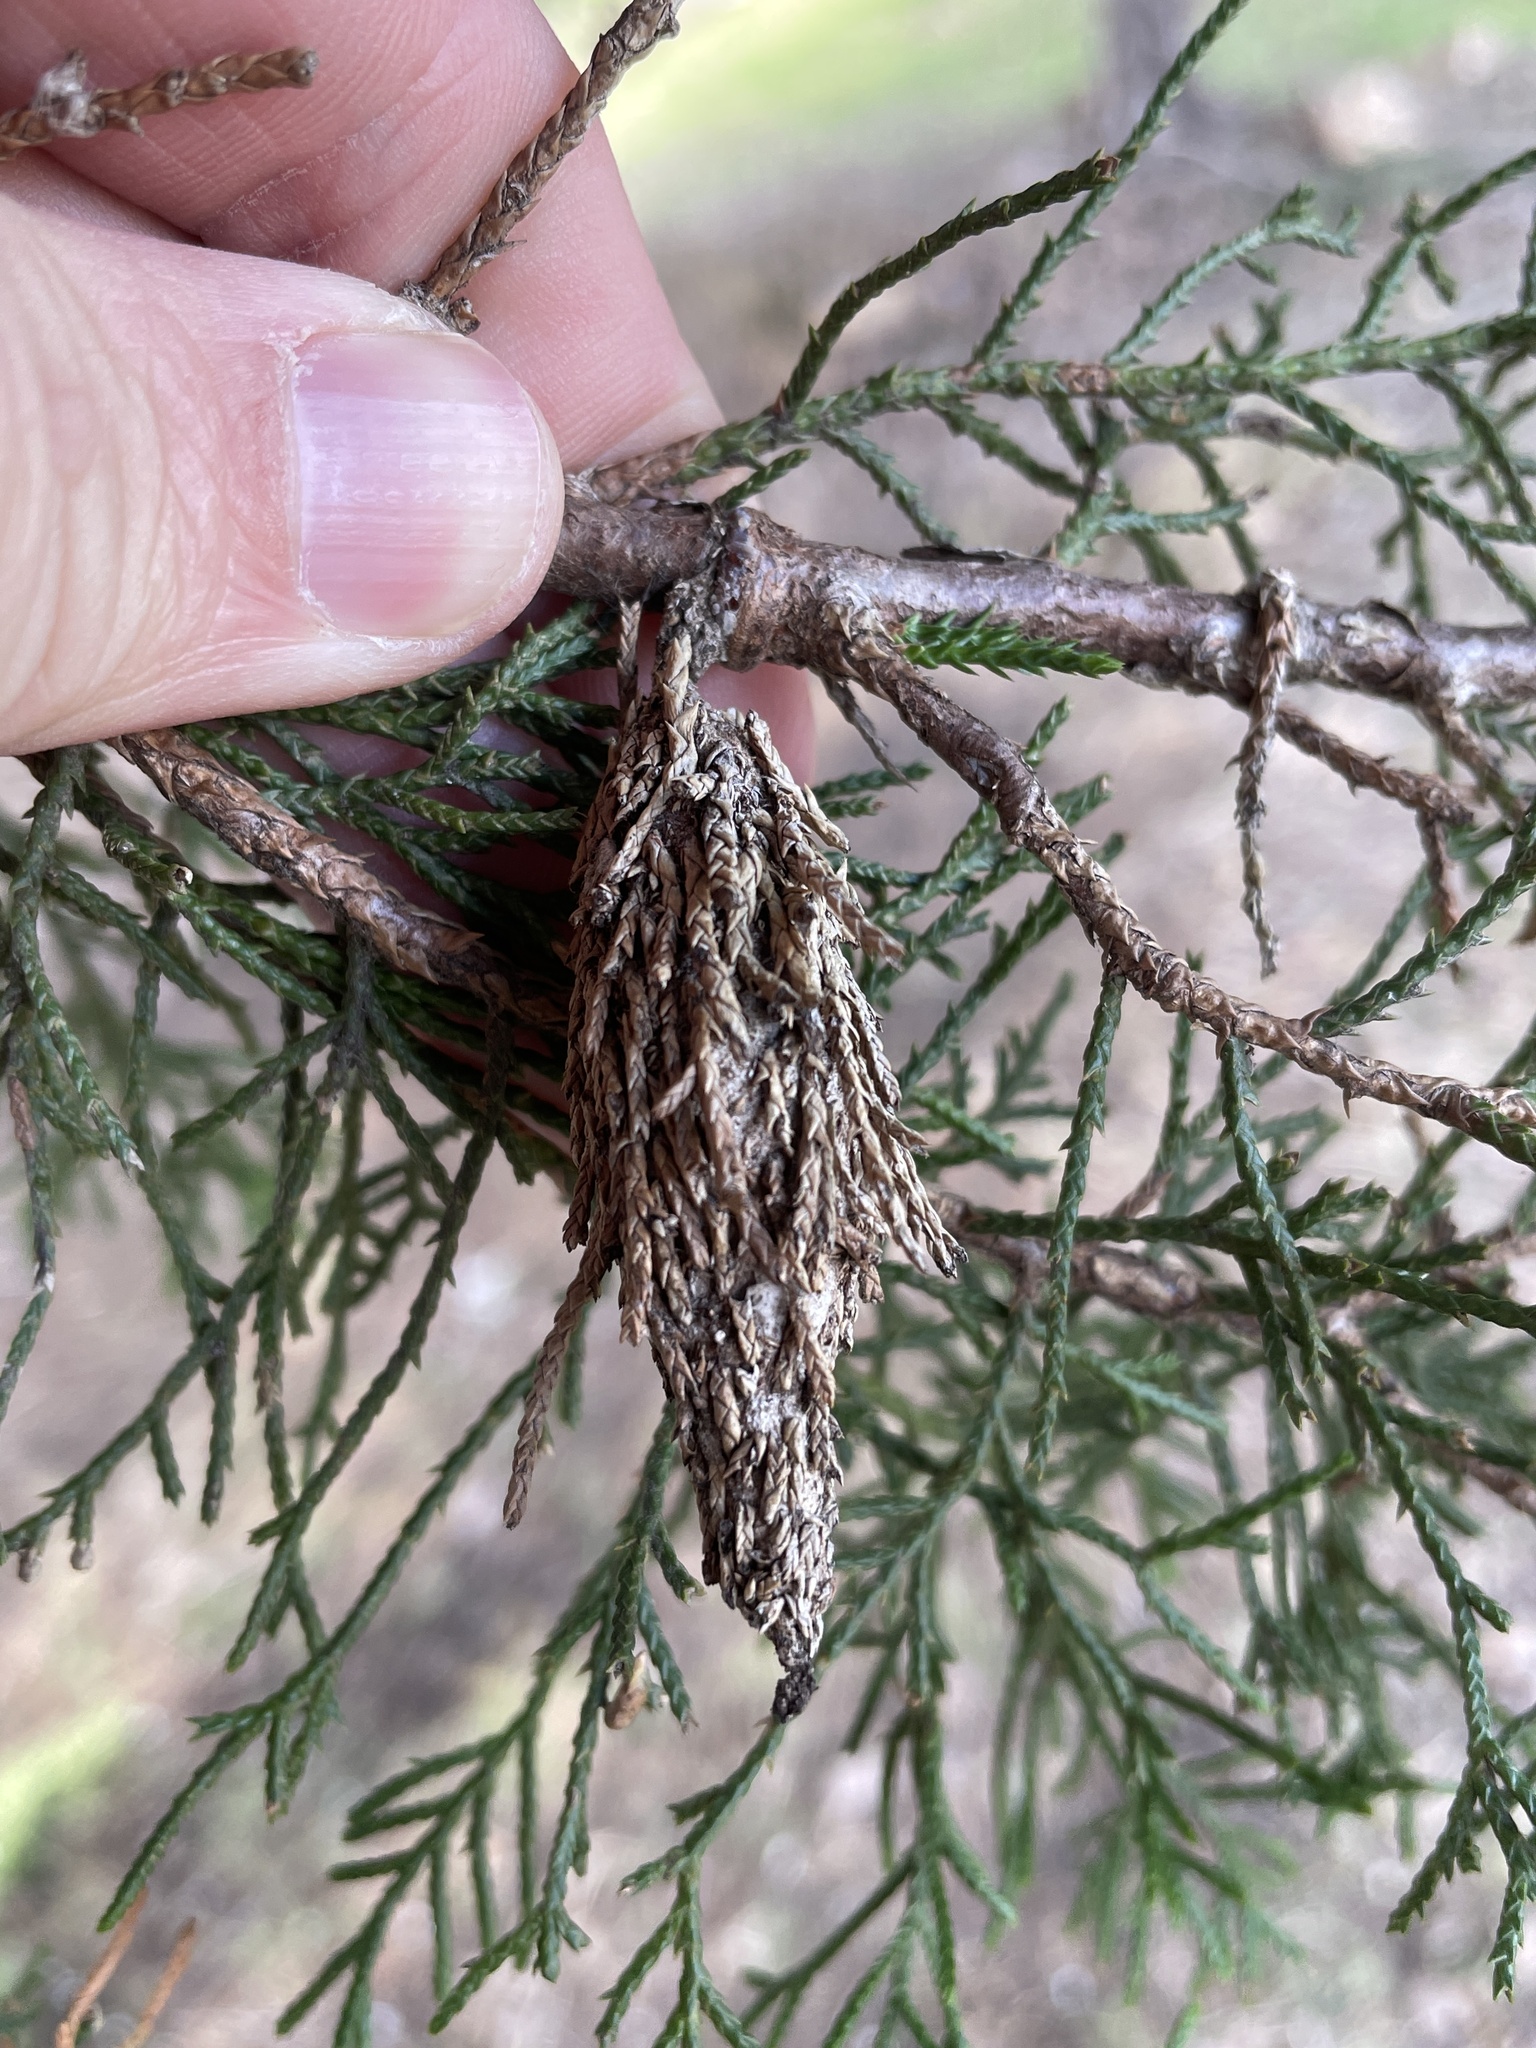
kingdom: Animalia
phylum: Arthropoda
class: Insecta
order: Lepidoptera
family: Psychidae
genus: Thyridopteryx
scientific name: Thyridopteryx ephemeraeformis
